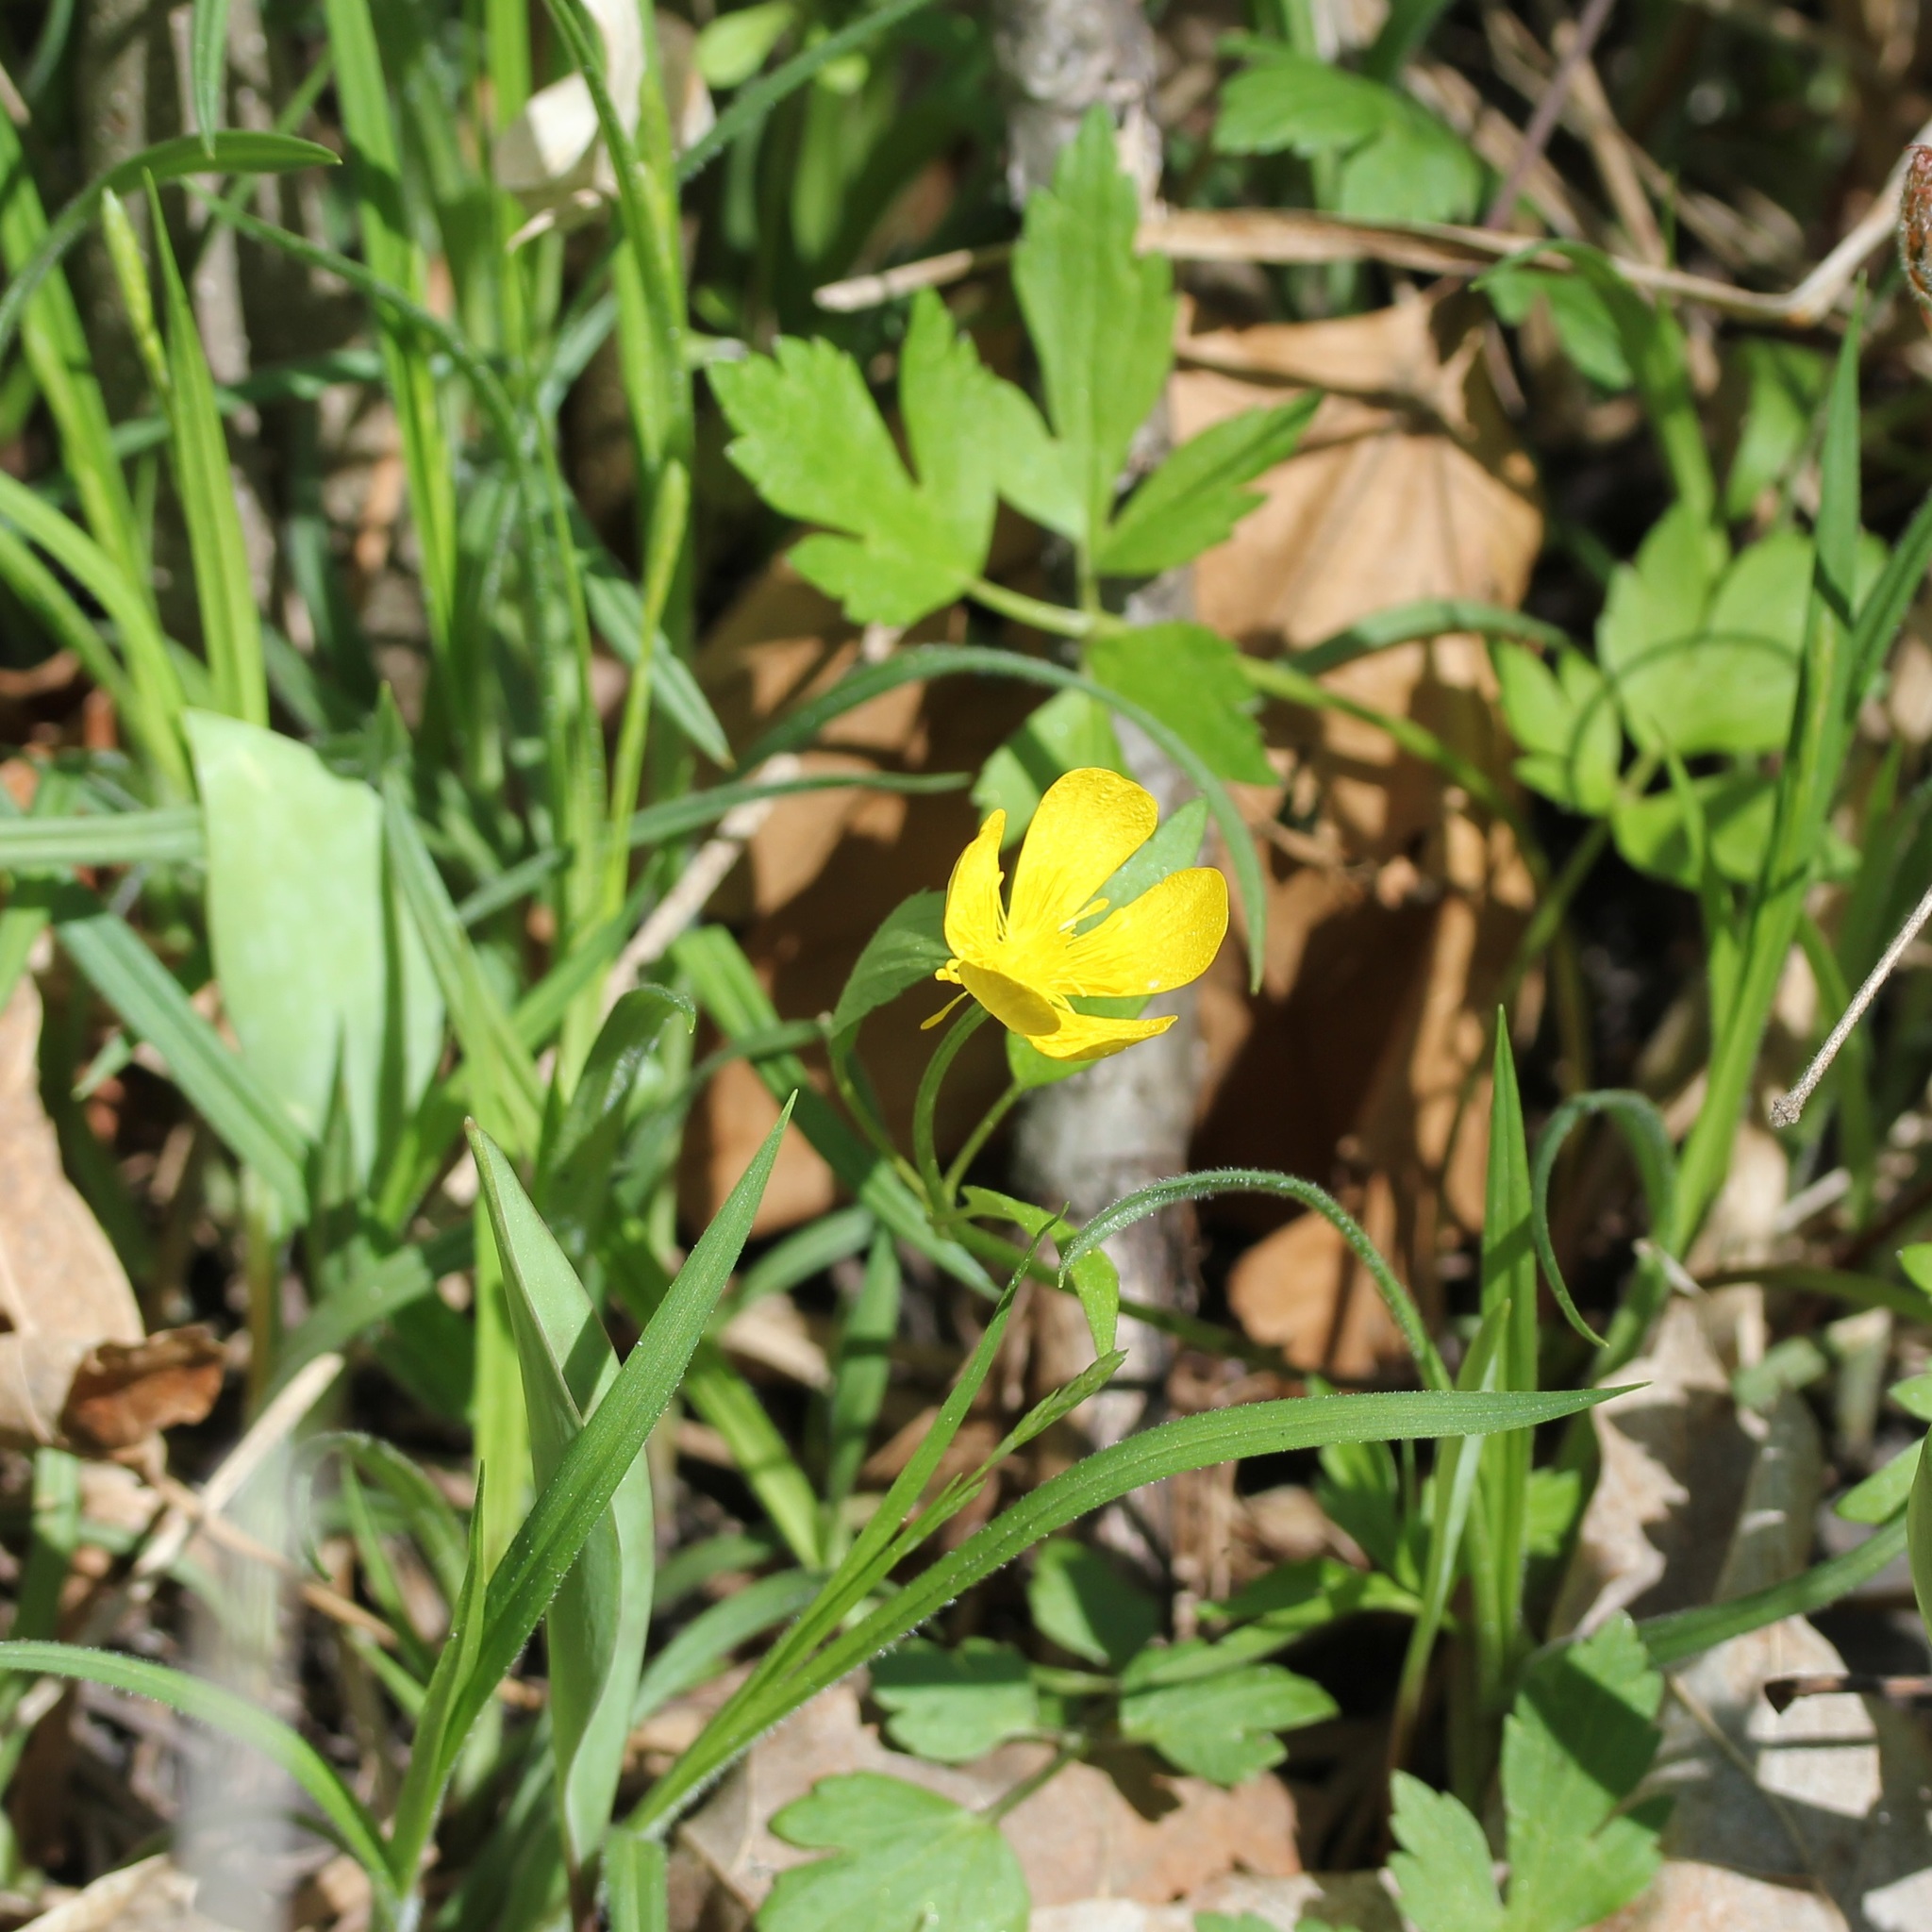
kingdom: Plantae
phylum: Tracheophyta
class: Magnoliopsida
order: Ranunculales
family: Ranunculaceae
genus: Ranunculus
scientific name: Ranunculus hispidus
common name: Bristly buttercup
